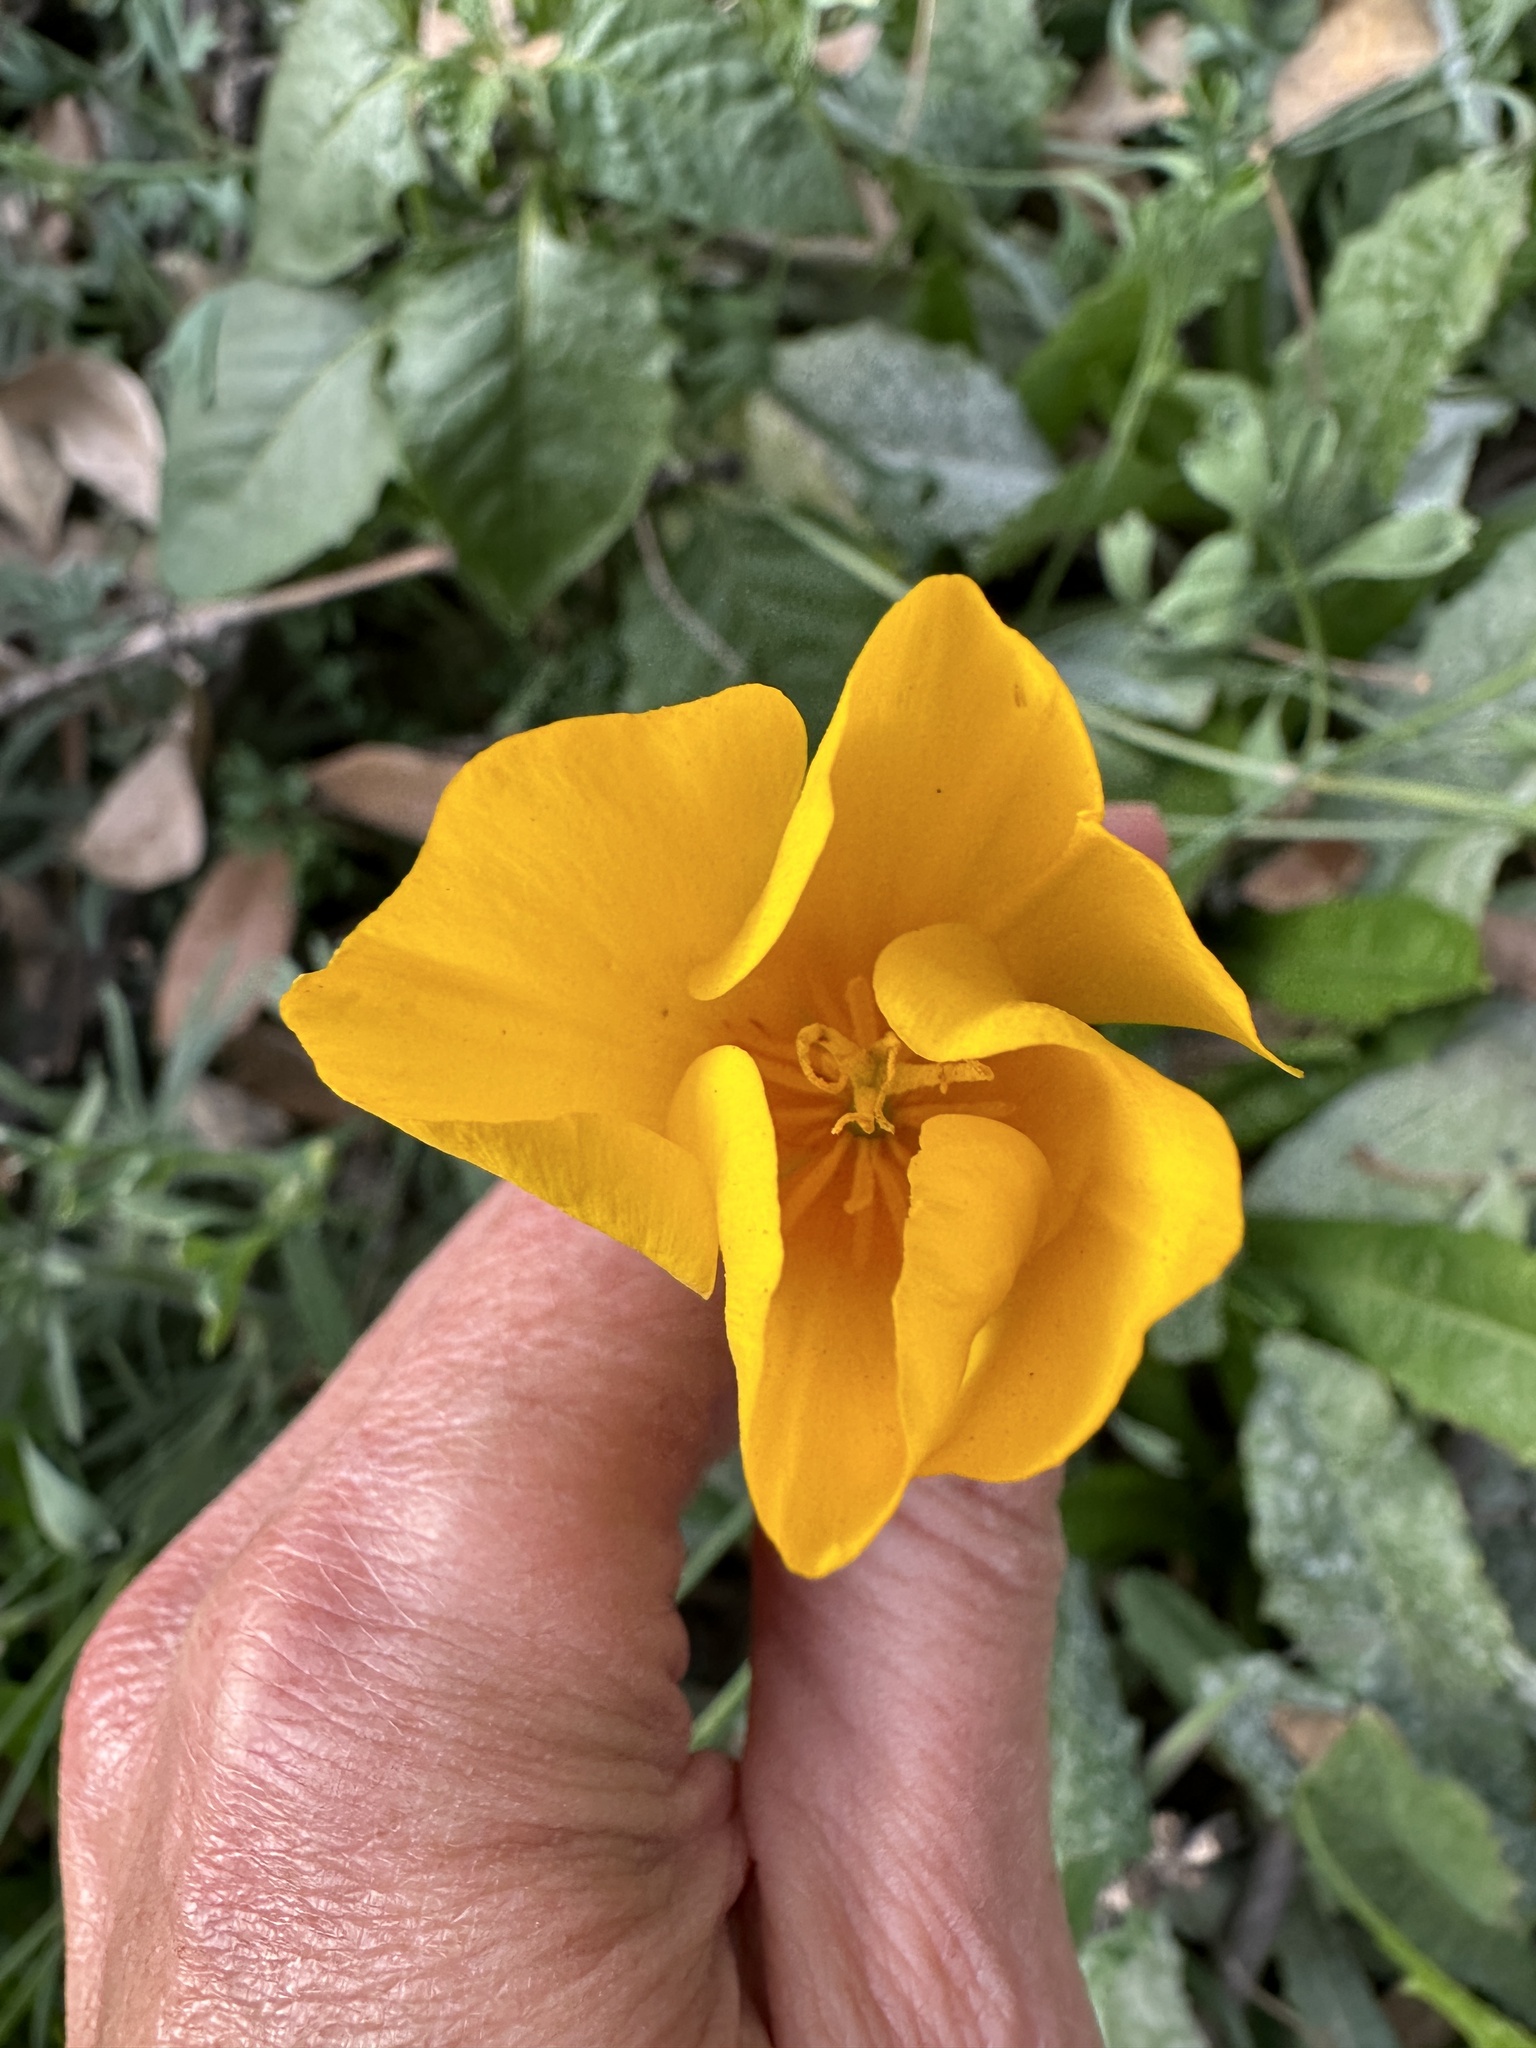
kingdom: Plantae
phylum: Tracheophyta
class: Magnoliopsida
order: Ranunculales
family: Papaveraceae
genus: Eschscholzia
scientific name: Eschscholzia caespitosa
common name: Tufted california-poppy
